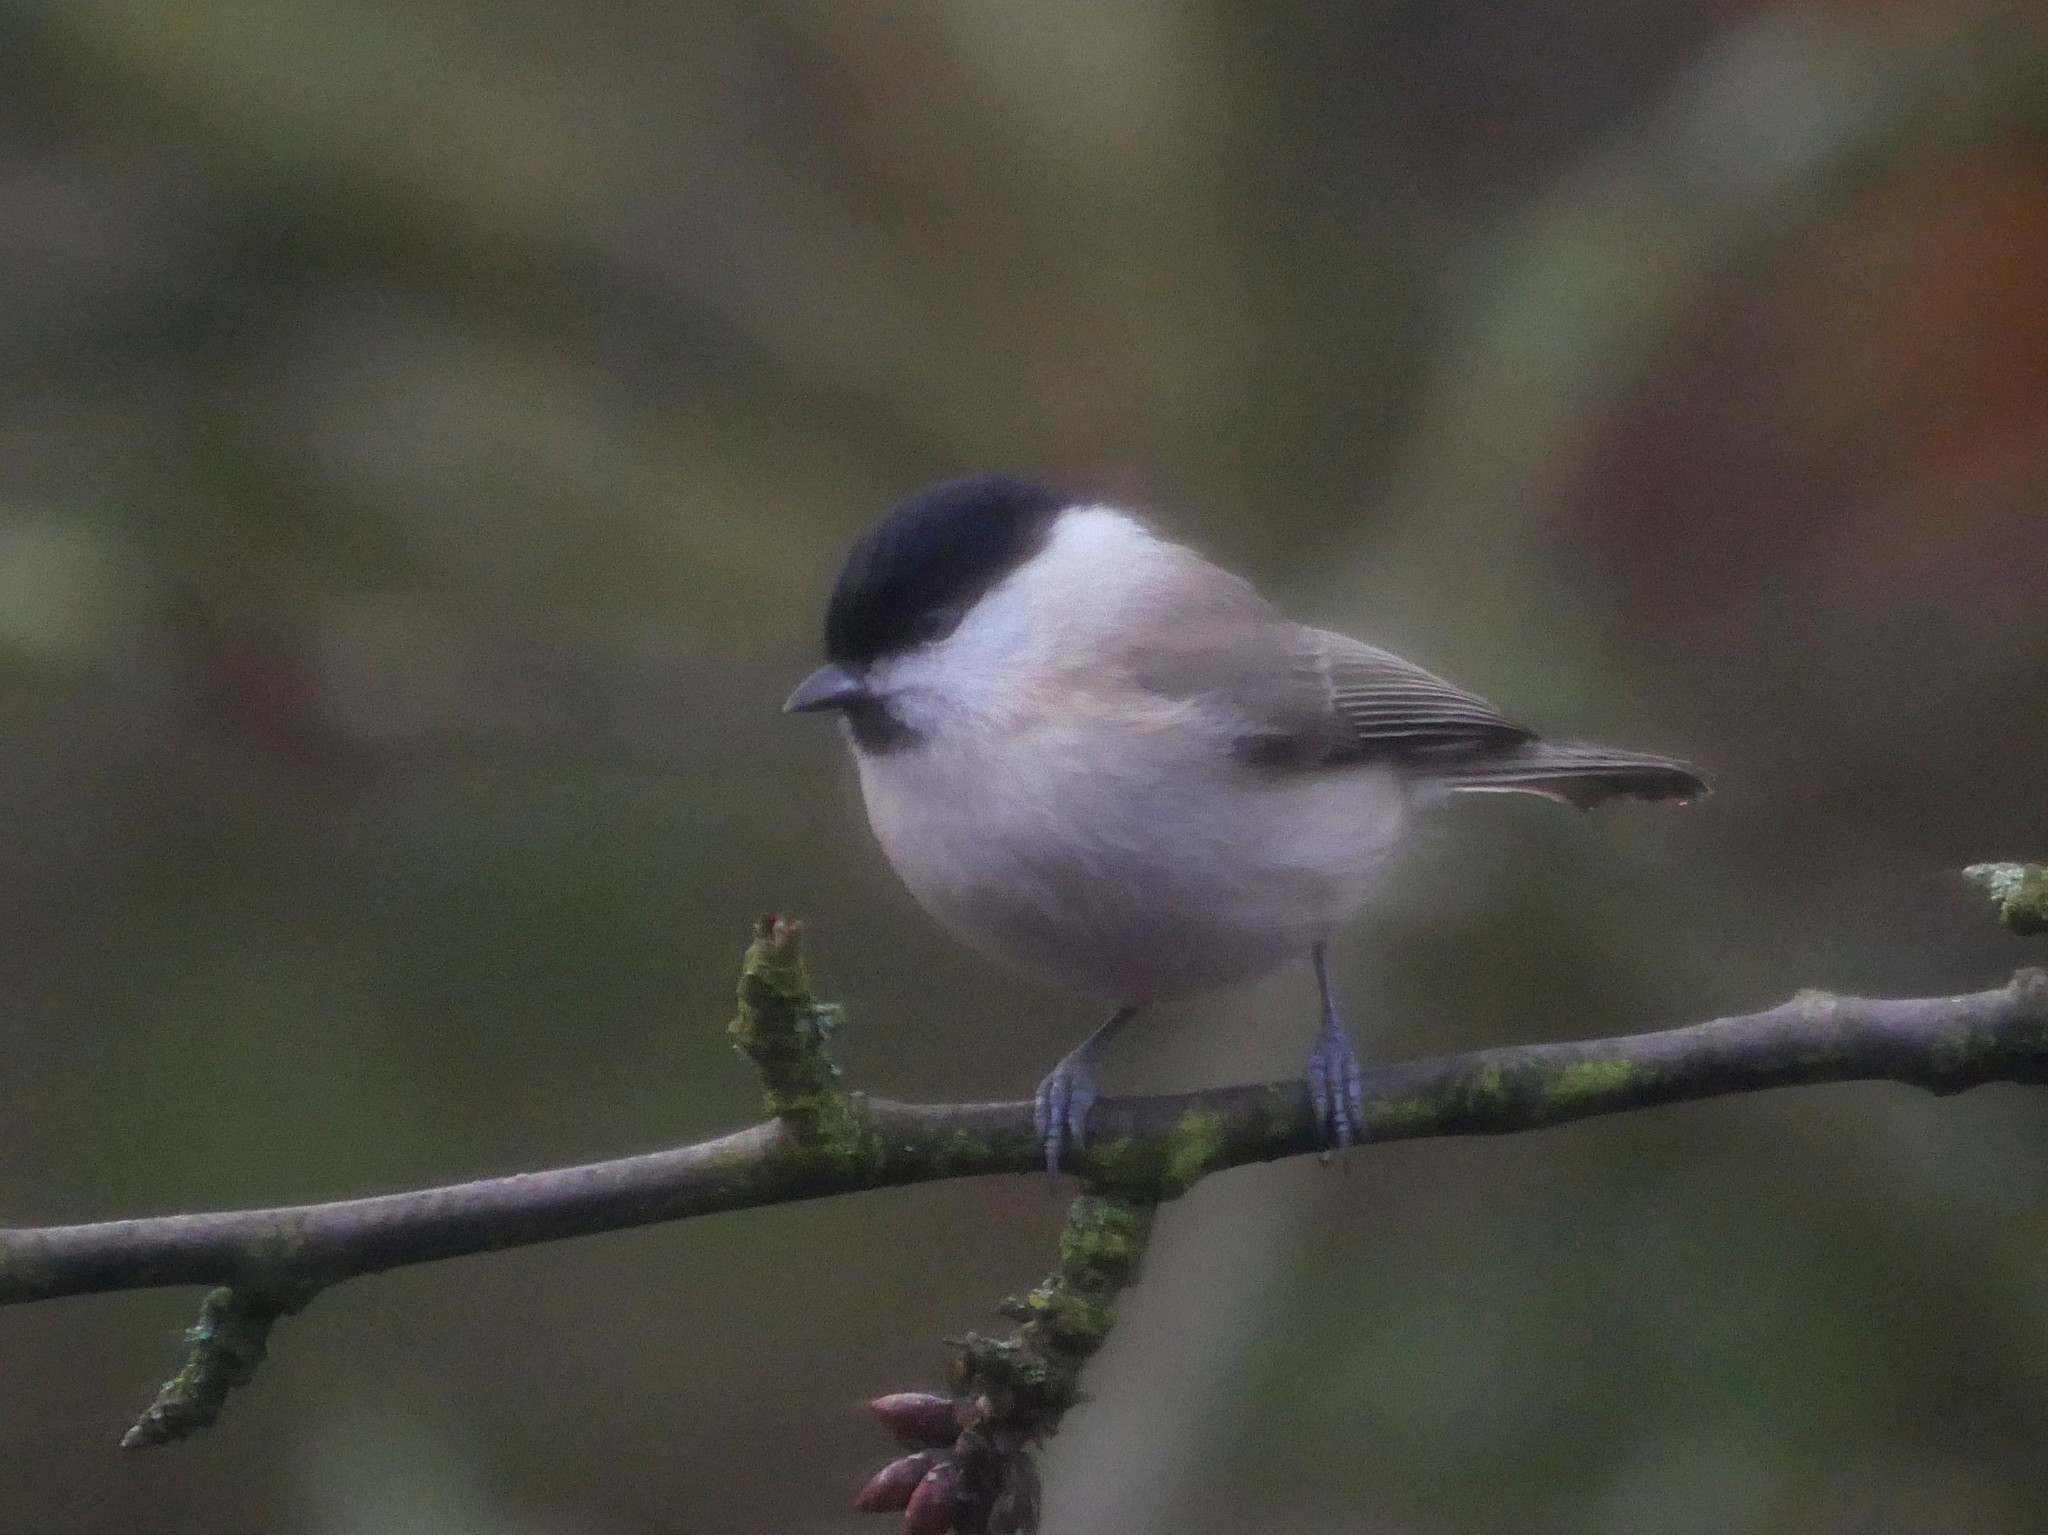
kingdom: Animalia
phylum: Chordata
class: Aves
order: Passeriformes
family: Paridae
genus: Poecile
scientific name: Poecile palustris
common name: Marsh tit
